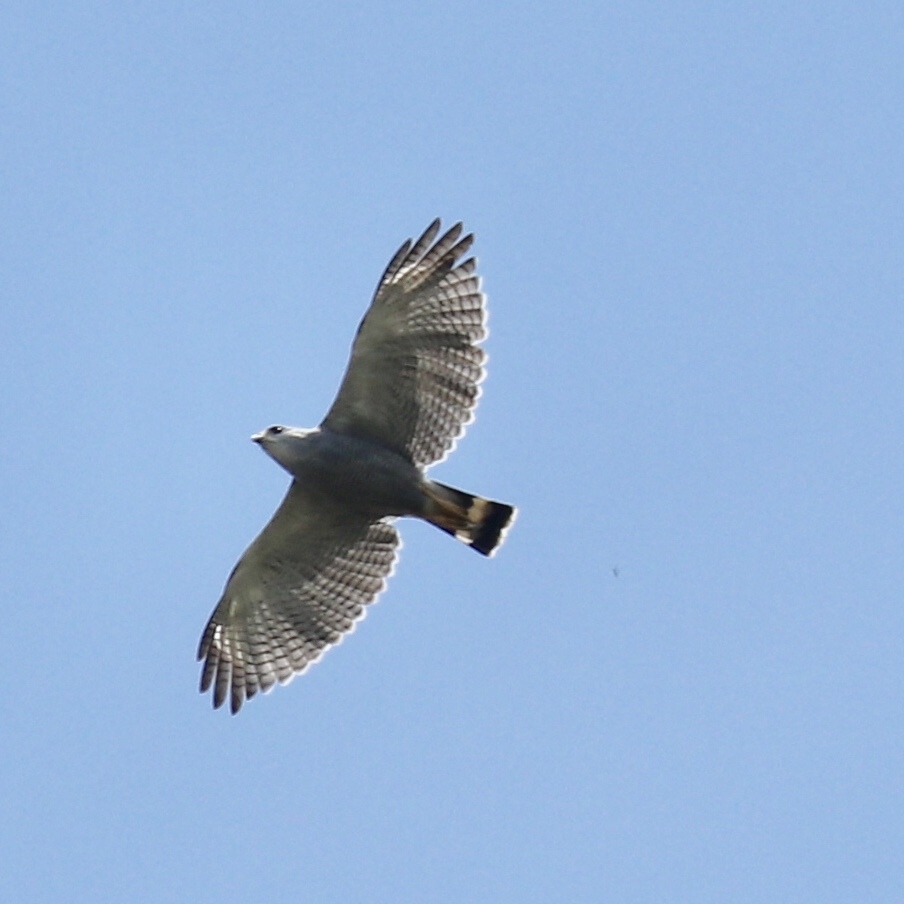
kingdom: Animalia
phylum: Chordata
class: Aves
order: Accipitriformes
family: Accipitridae
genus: Buteo
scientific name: Buteo nitidus
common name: Grey-lined hawk
